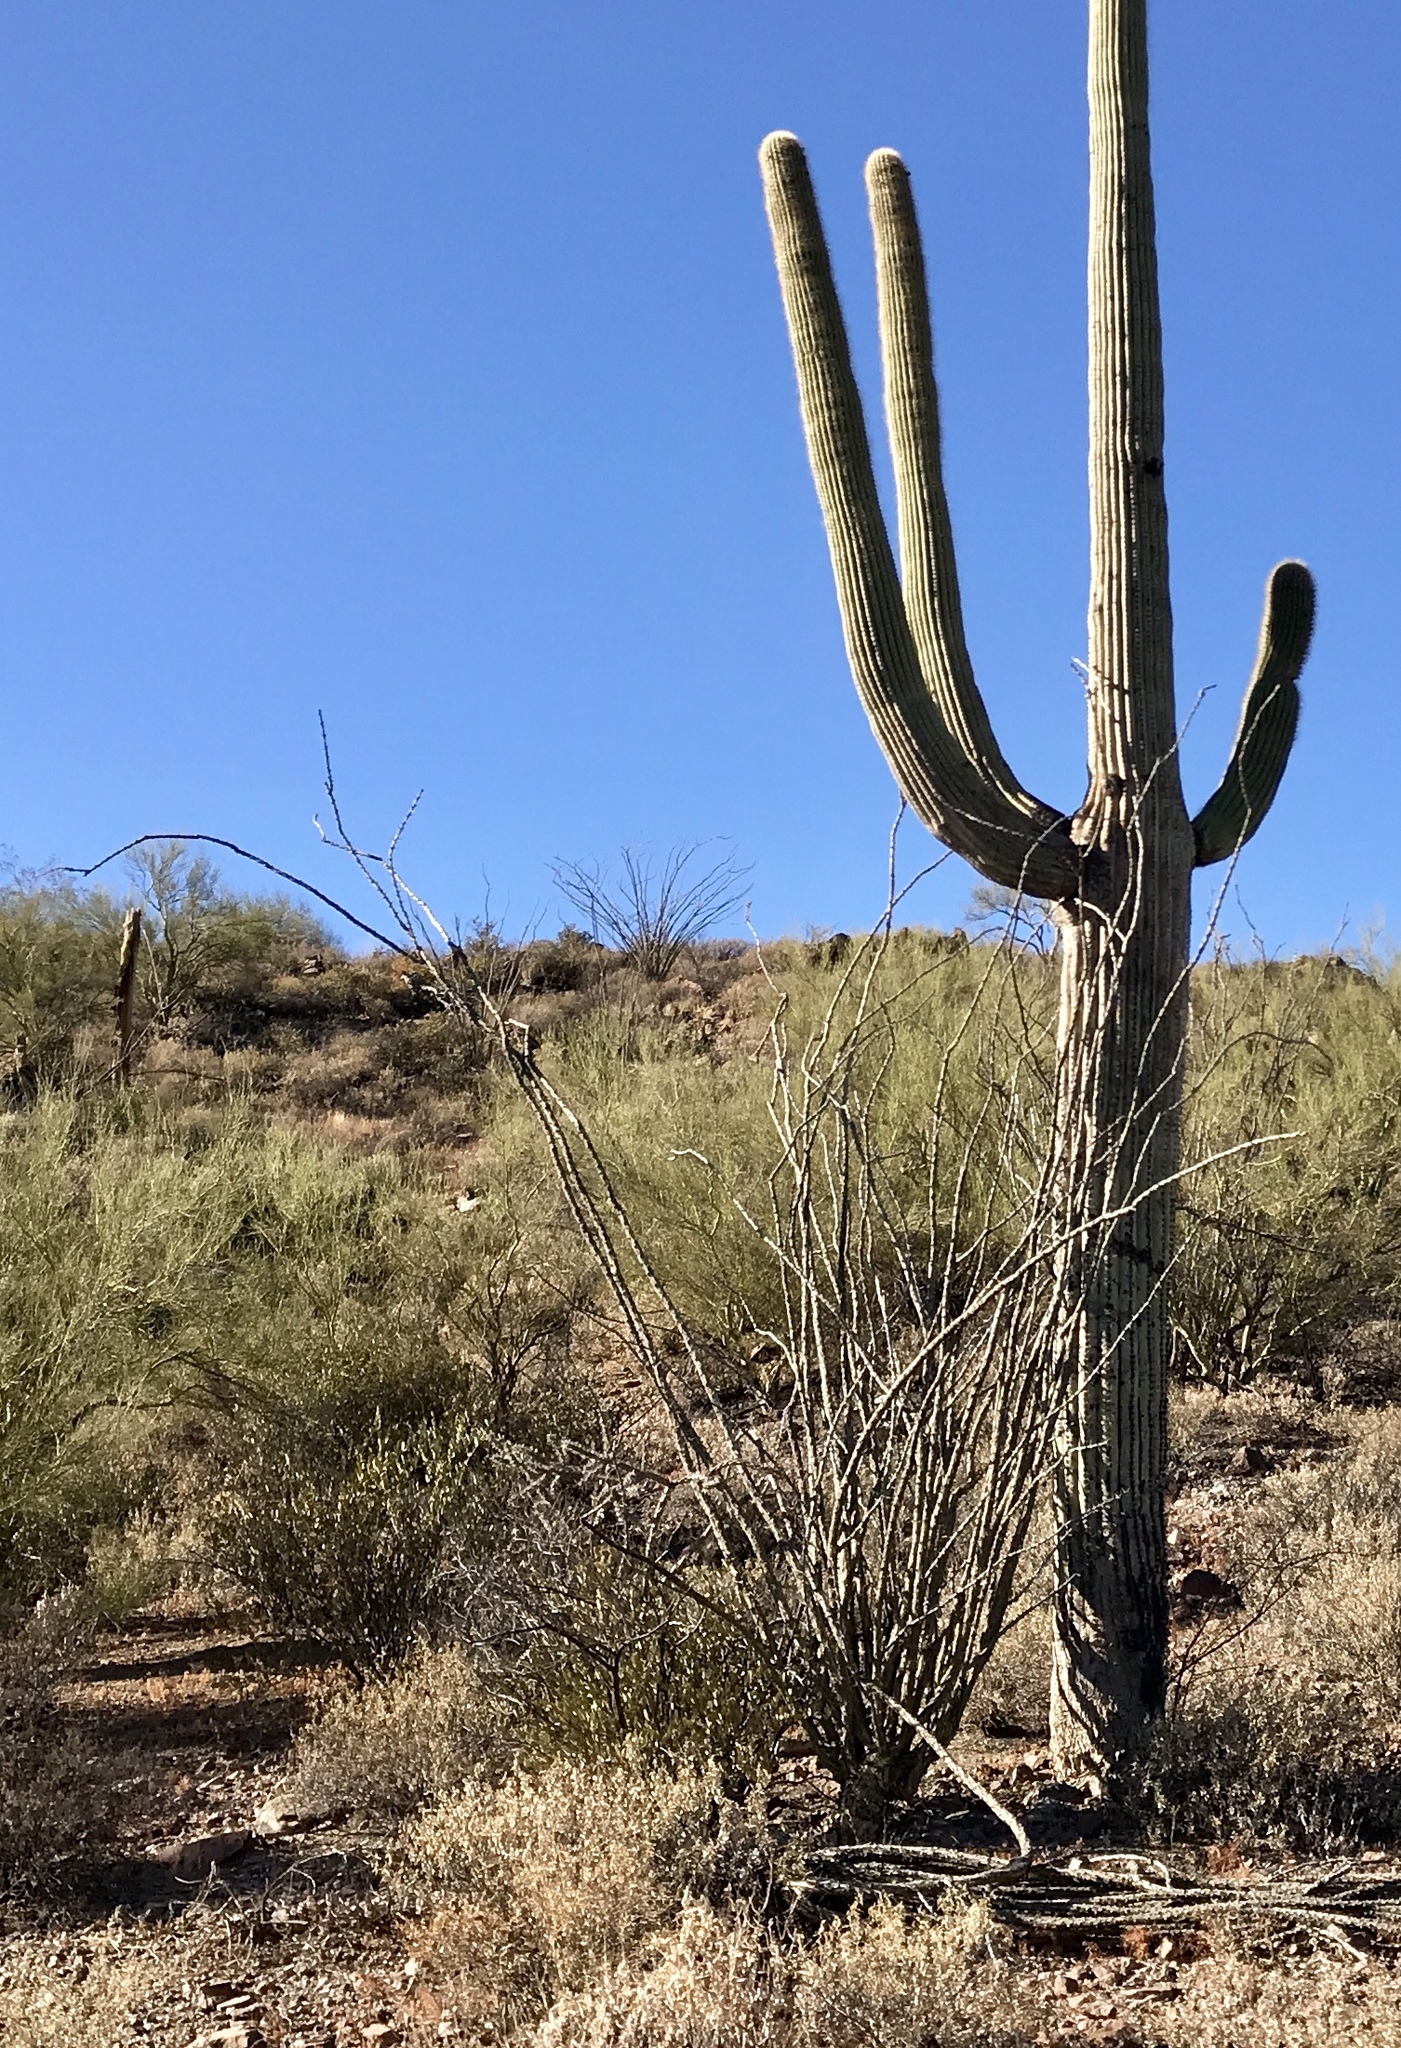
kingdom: Plantae
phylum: Tracheophyta
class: Magnoliopsida
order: Ericales
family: Fouquieriaceae
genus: Fouquieria
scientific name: Fouquieria splendens
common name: Vine-cactus
